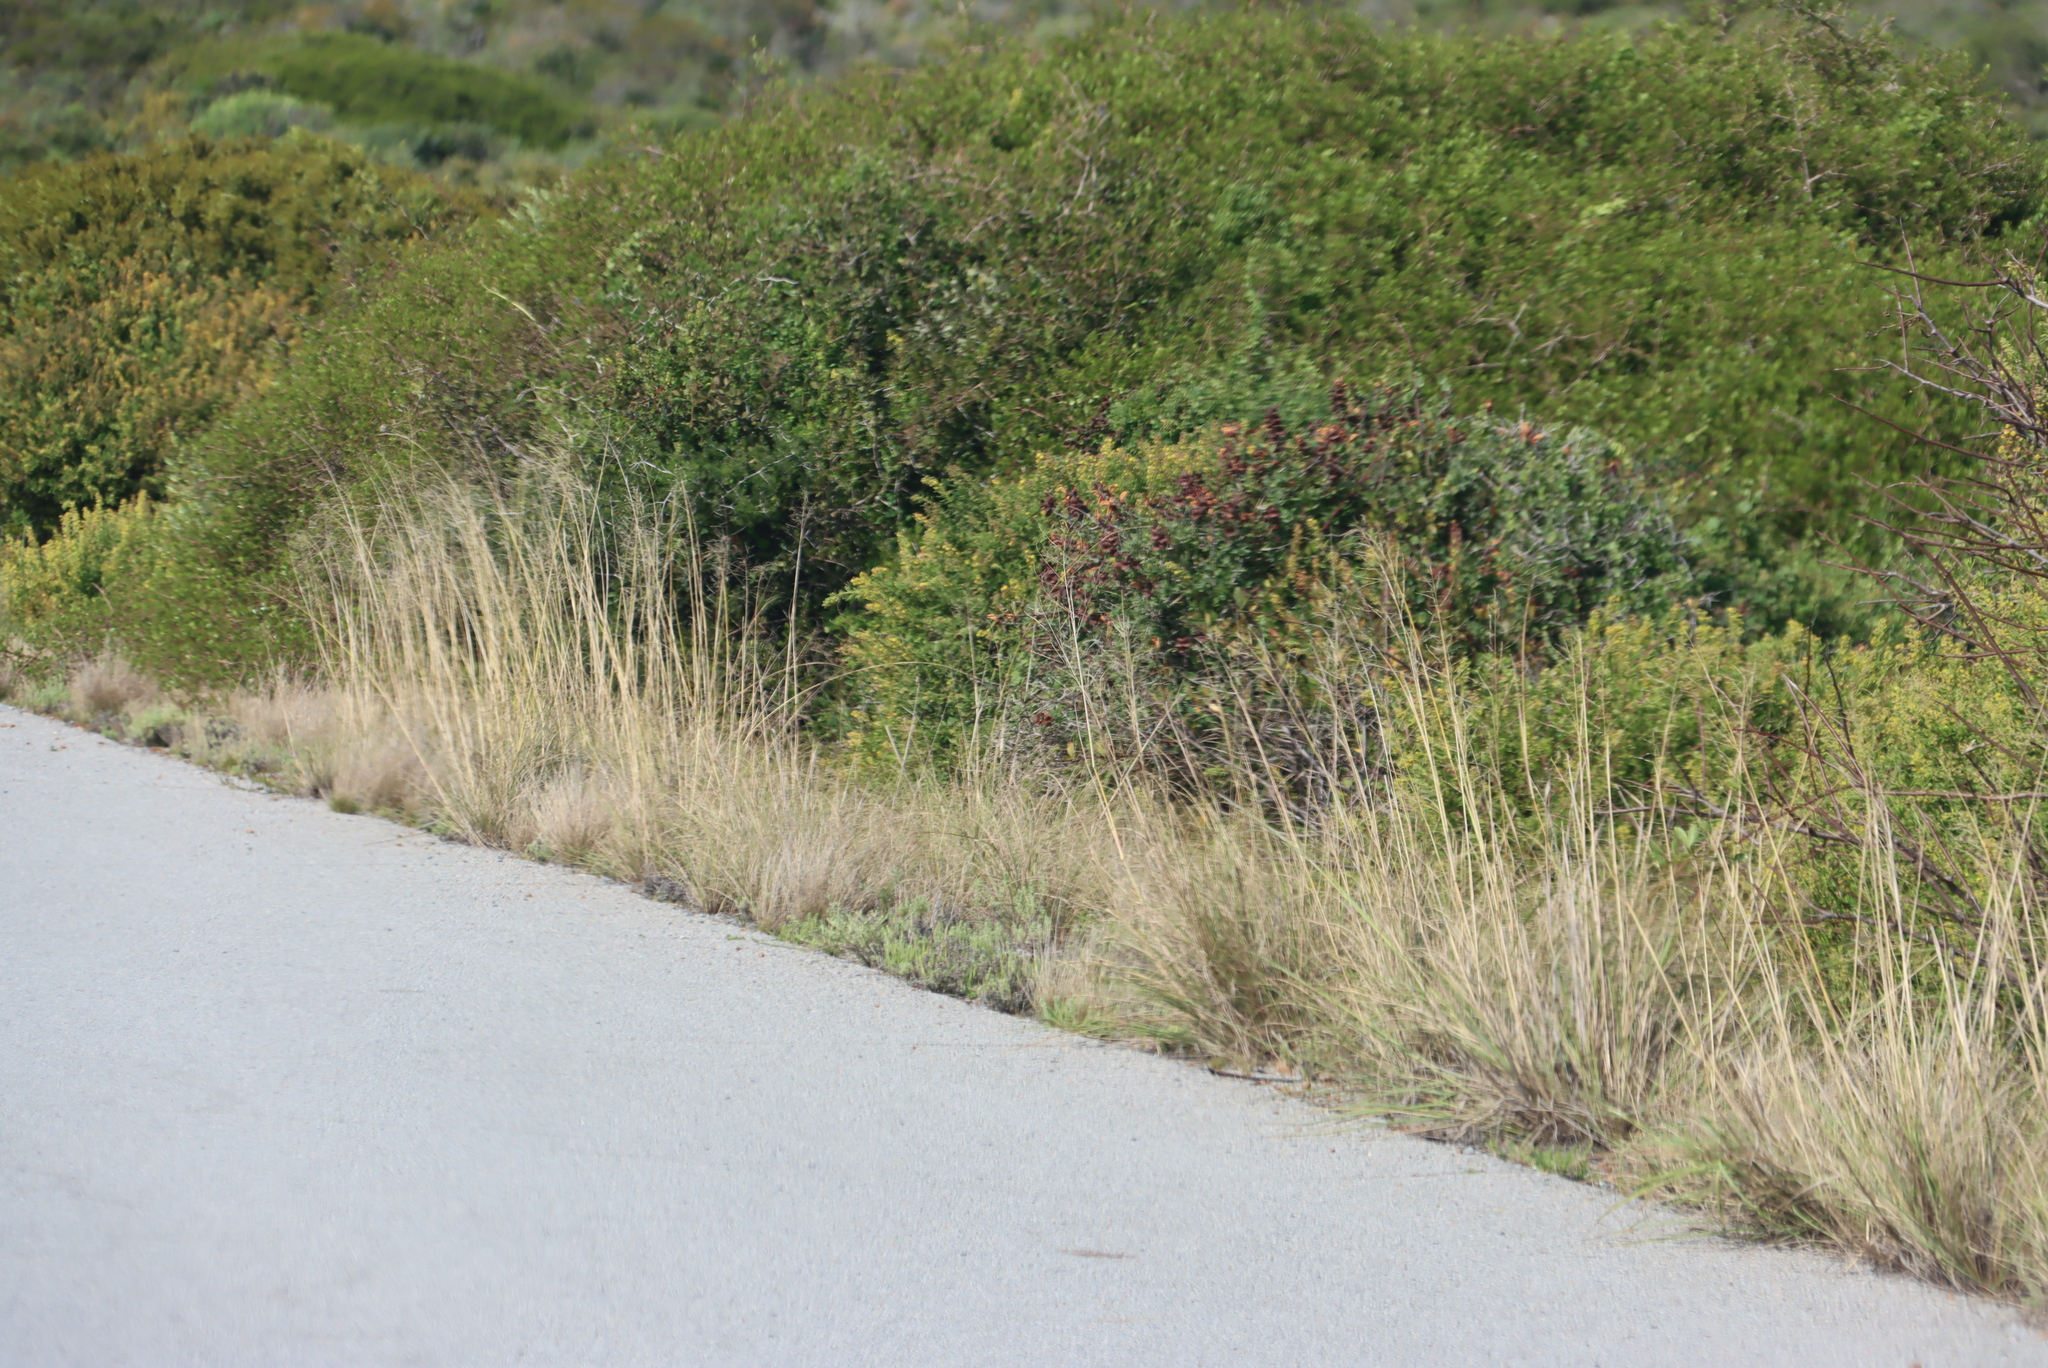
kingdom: Plantae
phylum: Tracheophyta
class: Magnoliopsida
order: Lamiales
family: Lamiaceae
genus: Salvia
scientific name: Salvia aurea
